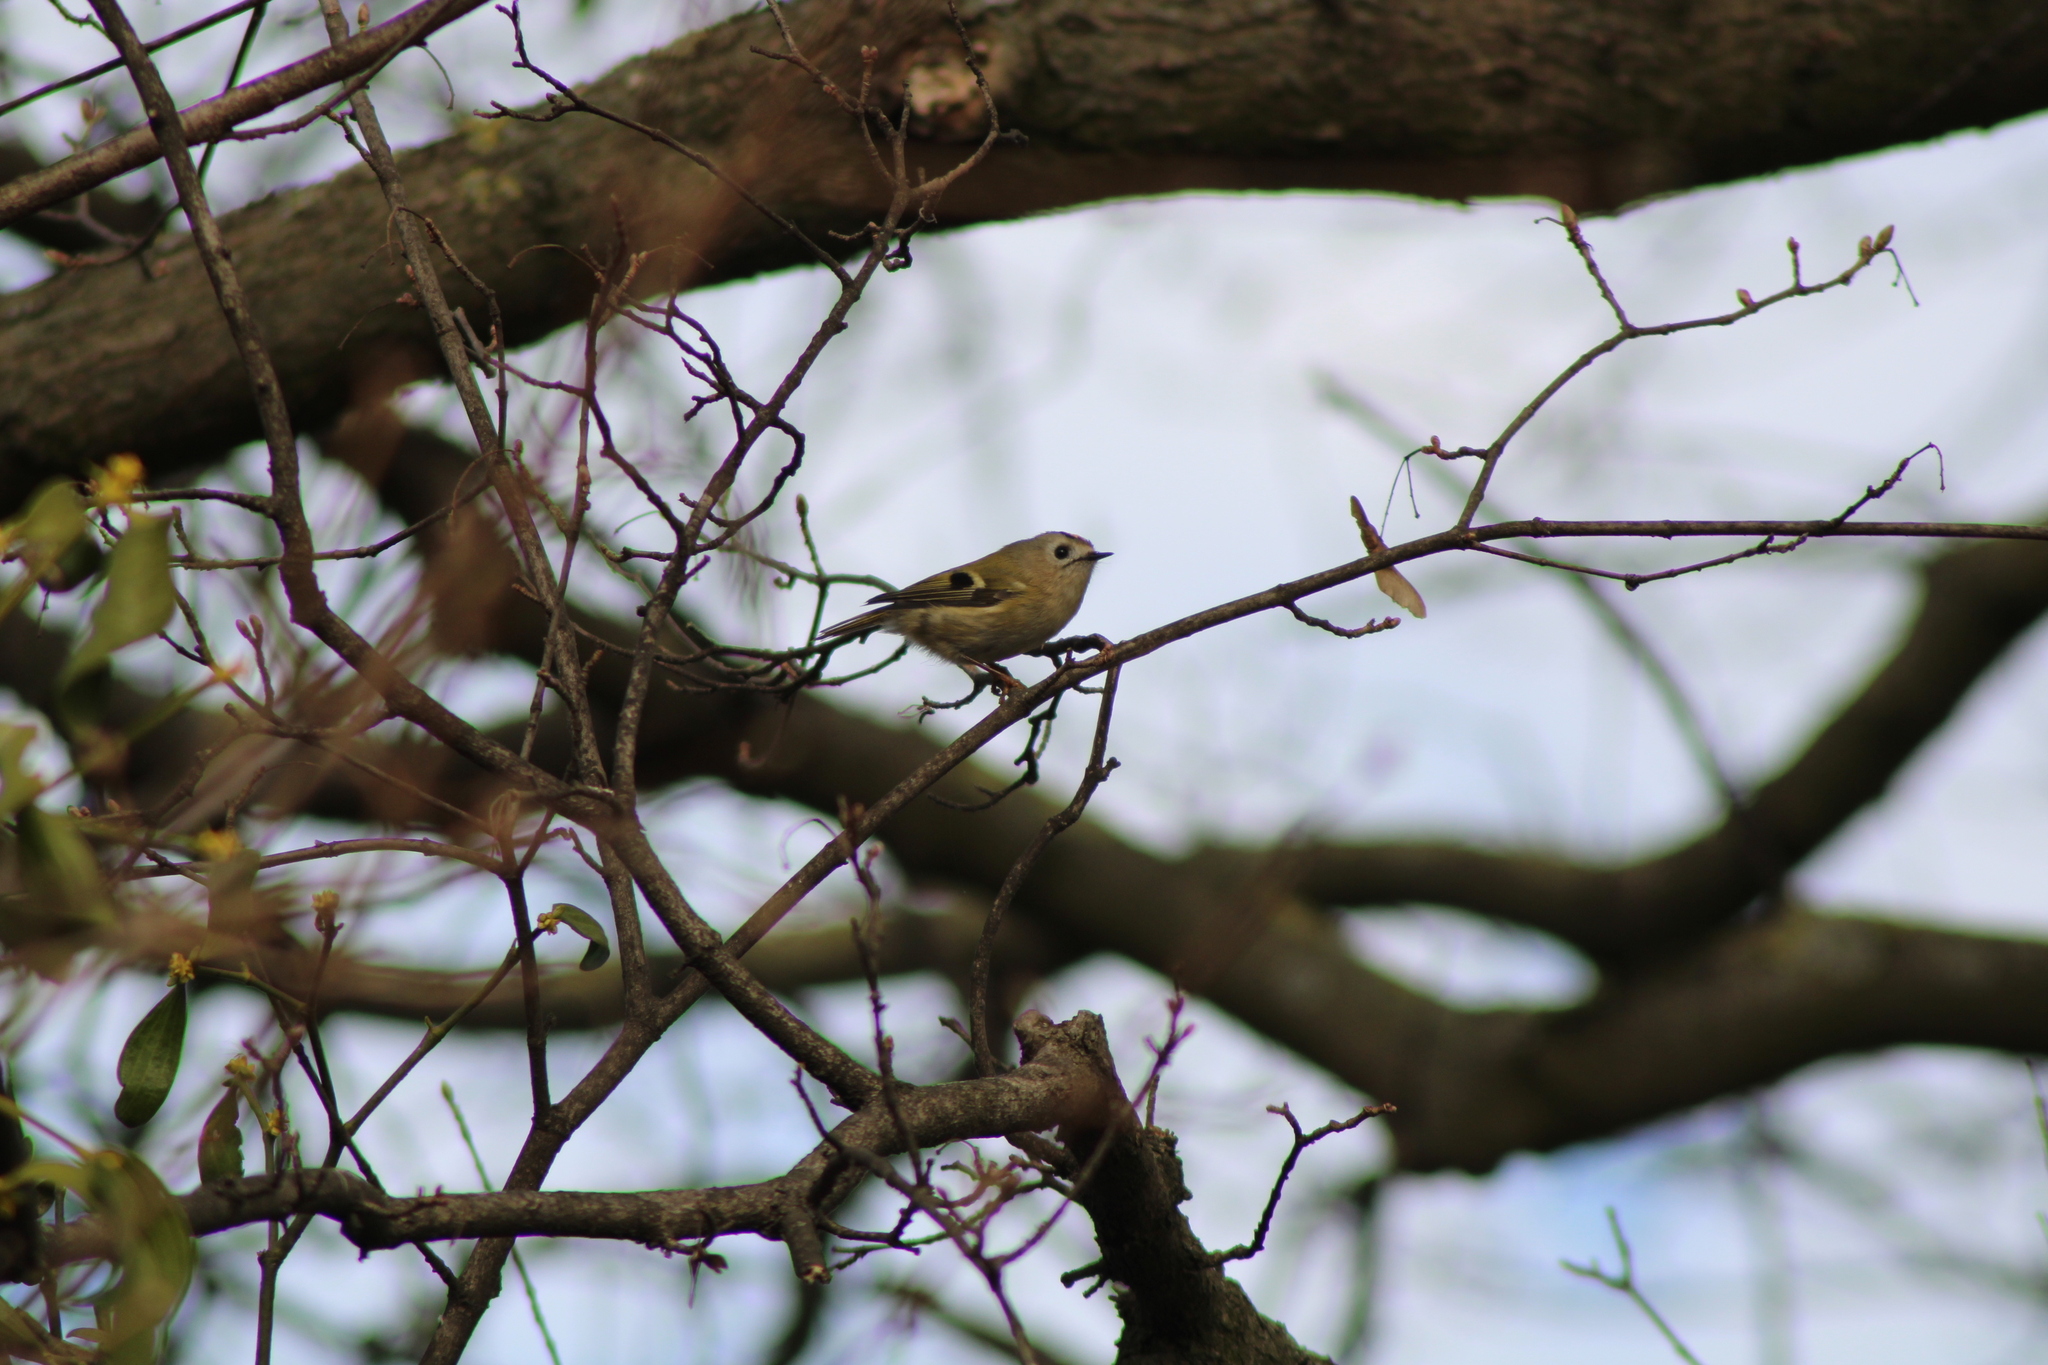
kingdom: Animalia
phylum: Chordata
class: Aves
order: Passeriformes
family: Regulidae
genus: Regulus
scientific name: Regulus regulus
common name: Goldcrest
